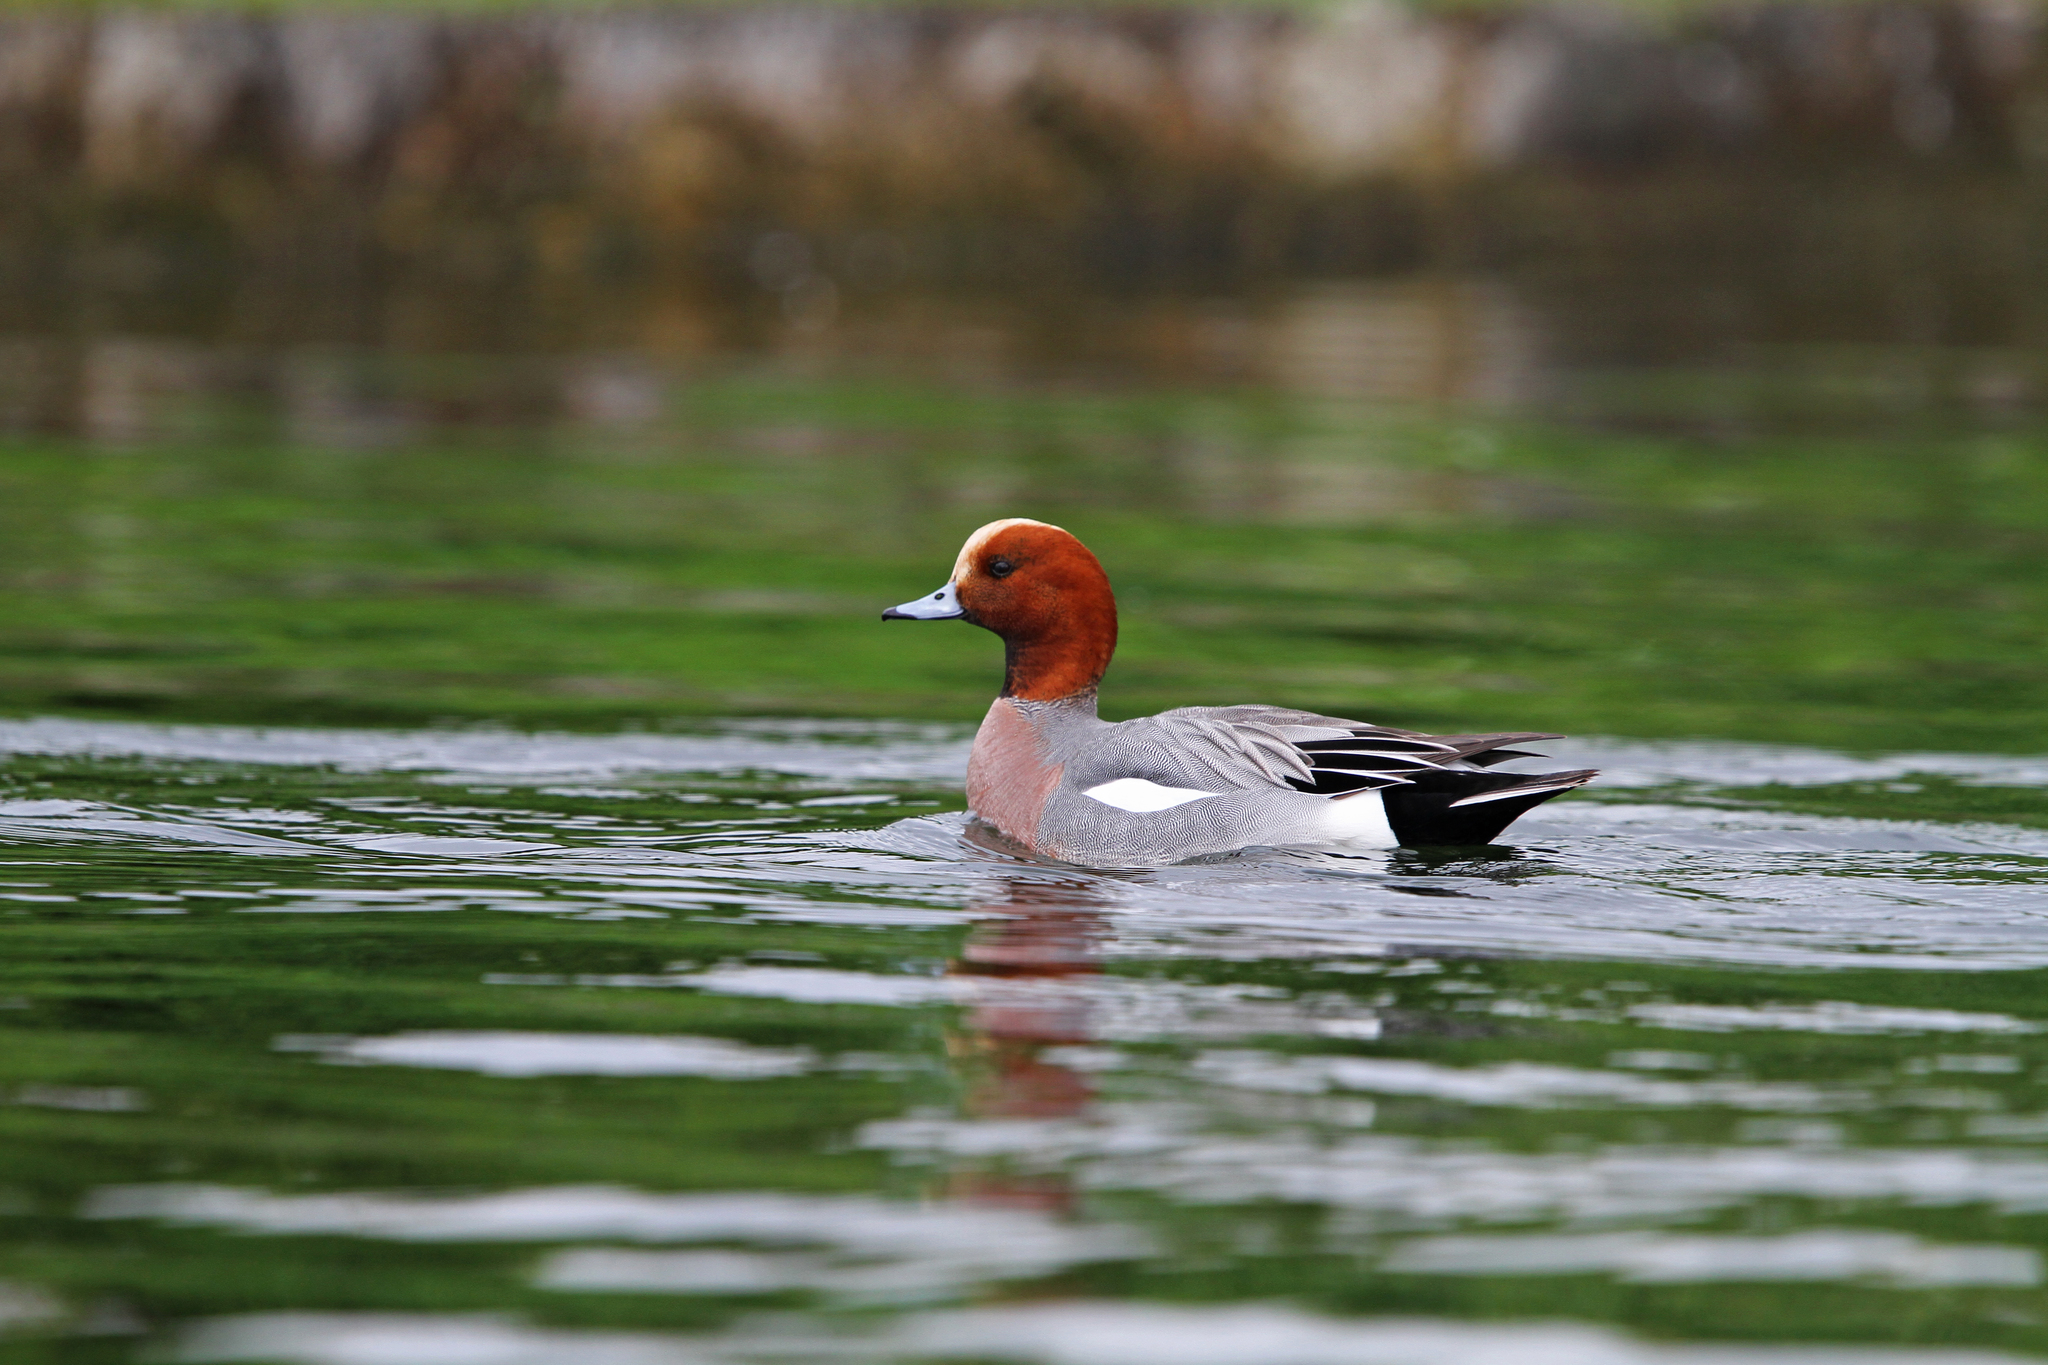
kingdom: Animalia
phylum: Chordata
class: Aves
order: Anseriformes
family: Anatidae
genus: Mareca
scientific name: Mareca penelope
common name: Eurasian wigeon
